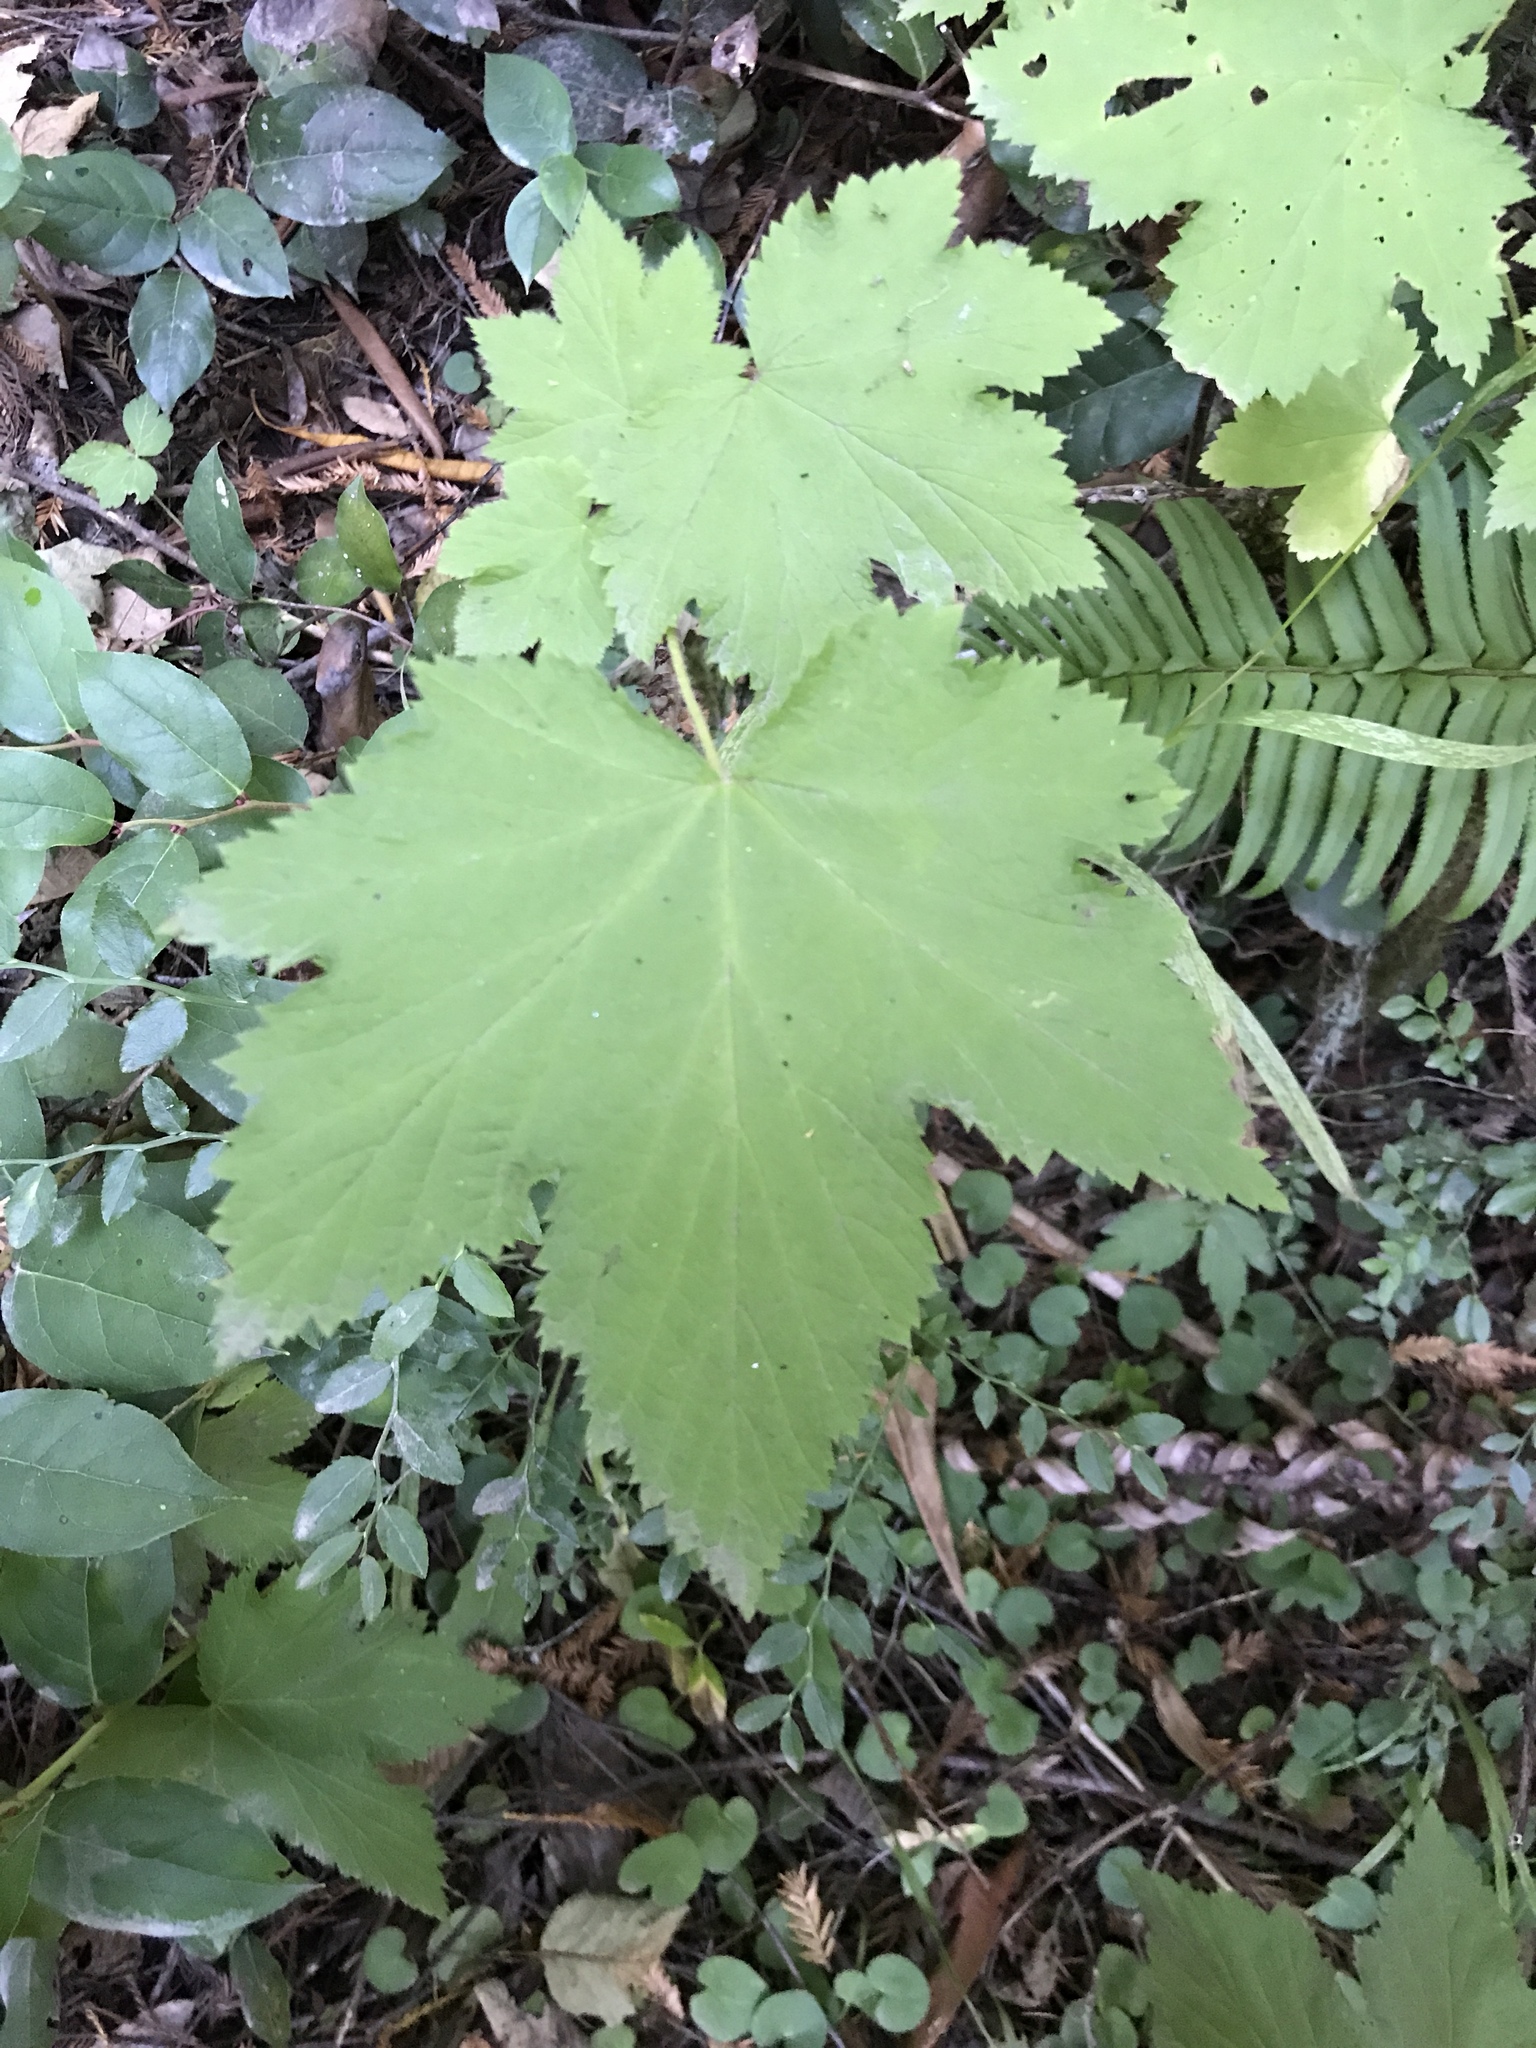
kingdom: Plantae
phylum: Tracheophyta
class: Magnoliopsida
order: Rosales
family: Rosaceae
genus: Rubus
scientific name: Rubus parviflorus
